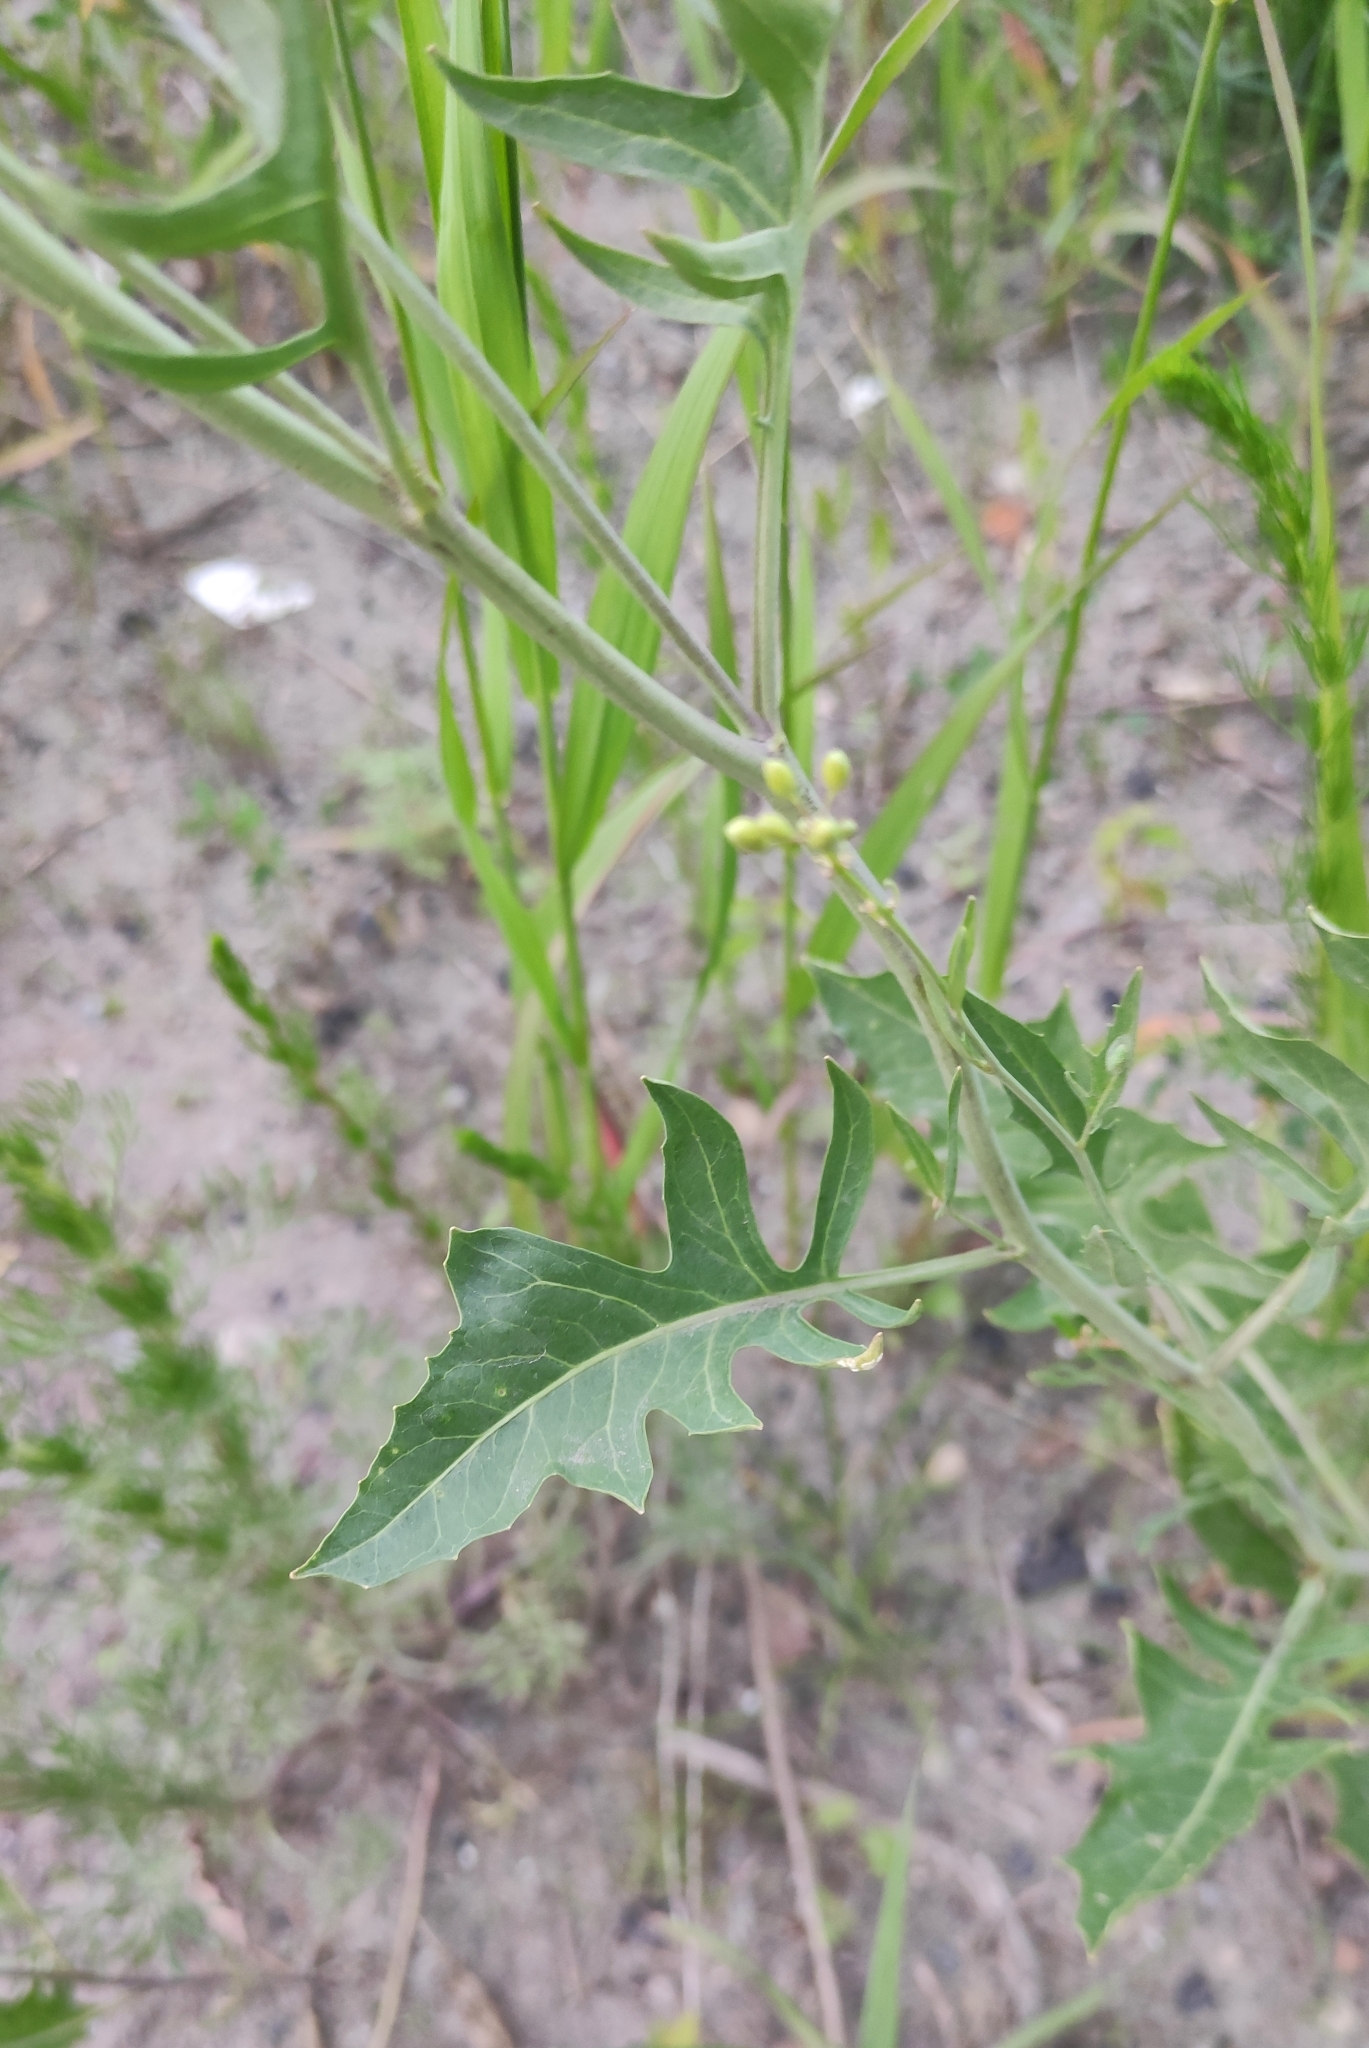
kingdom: Plantae
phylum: Tracheophyta
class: Magnoliopsida
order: Brassicales
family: Brassicaceae
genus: Sisymbrium
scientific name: Sisymbrium volgense
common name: Russian mustard
